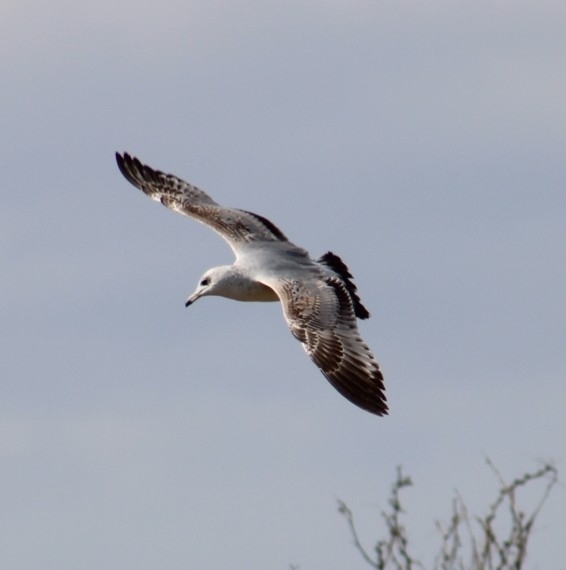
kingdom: Animalia
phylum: Chordata
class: Aves
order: Charadriiformes
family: Laridae
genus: Larus
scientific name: Larus delawarensis
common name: Ring-billed gull
